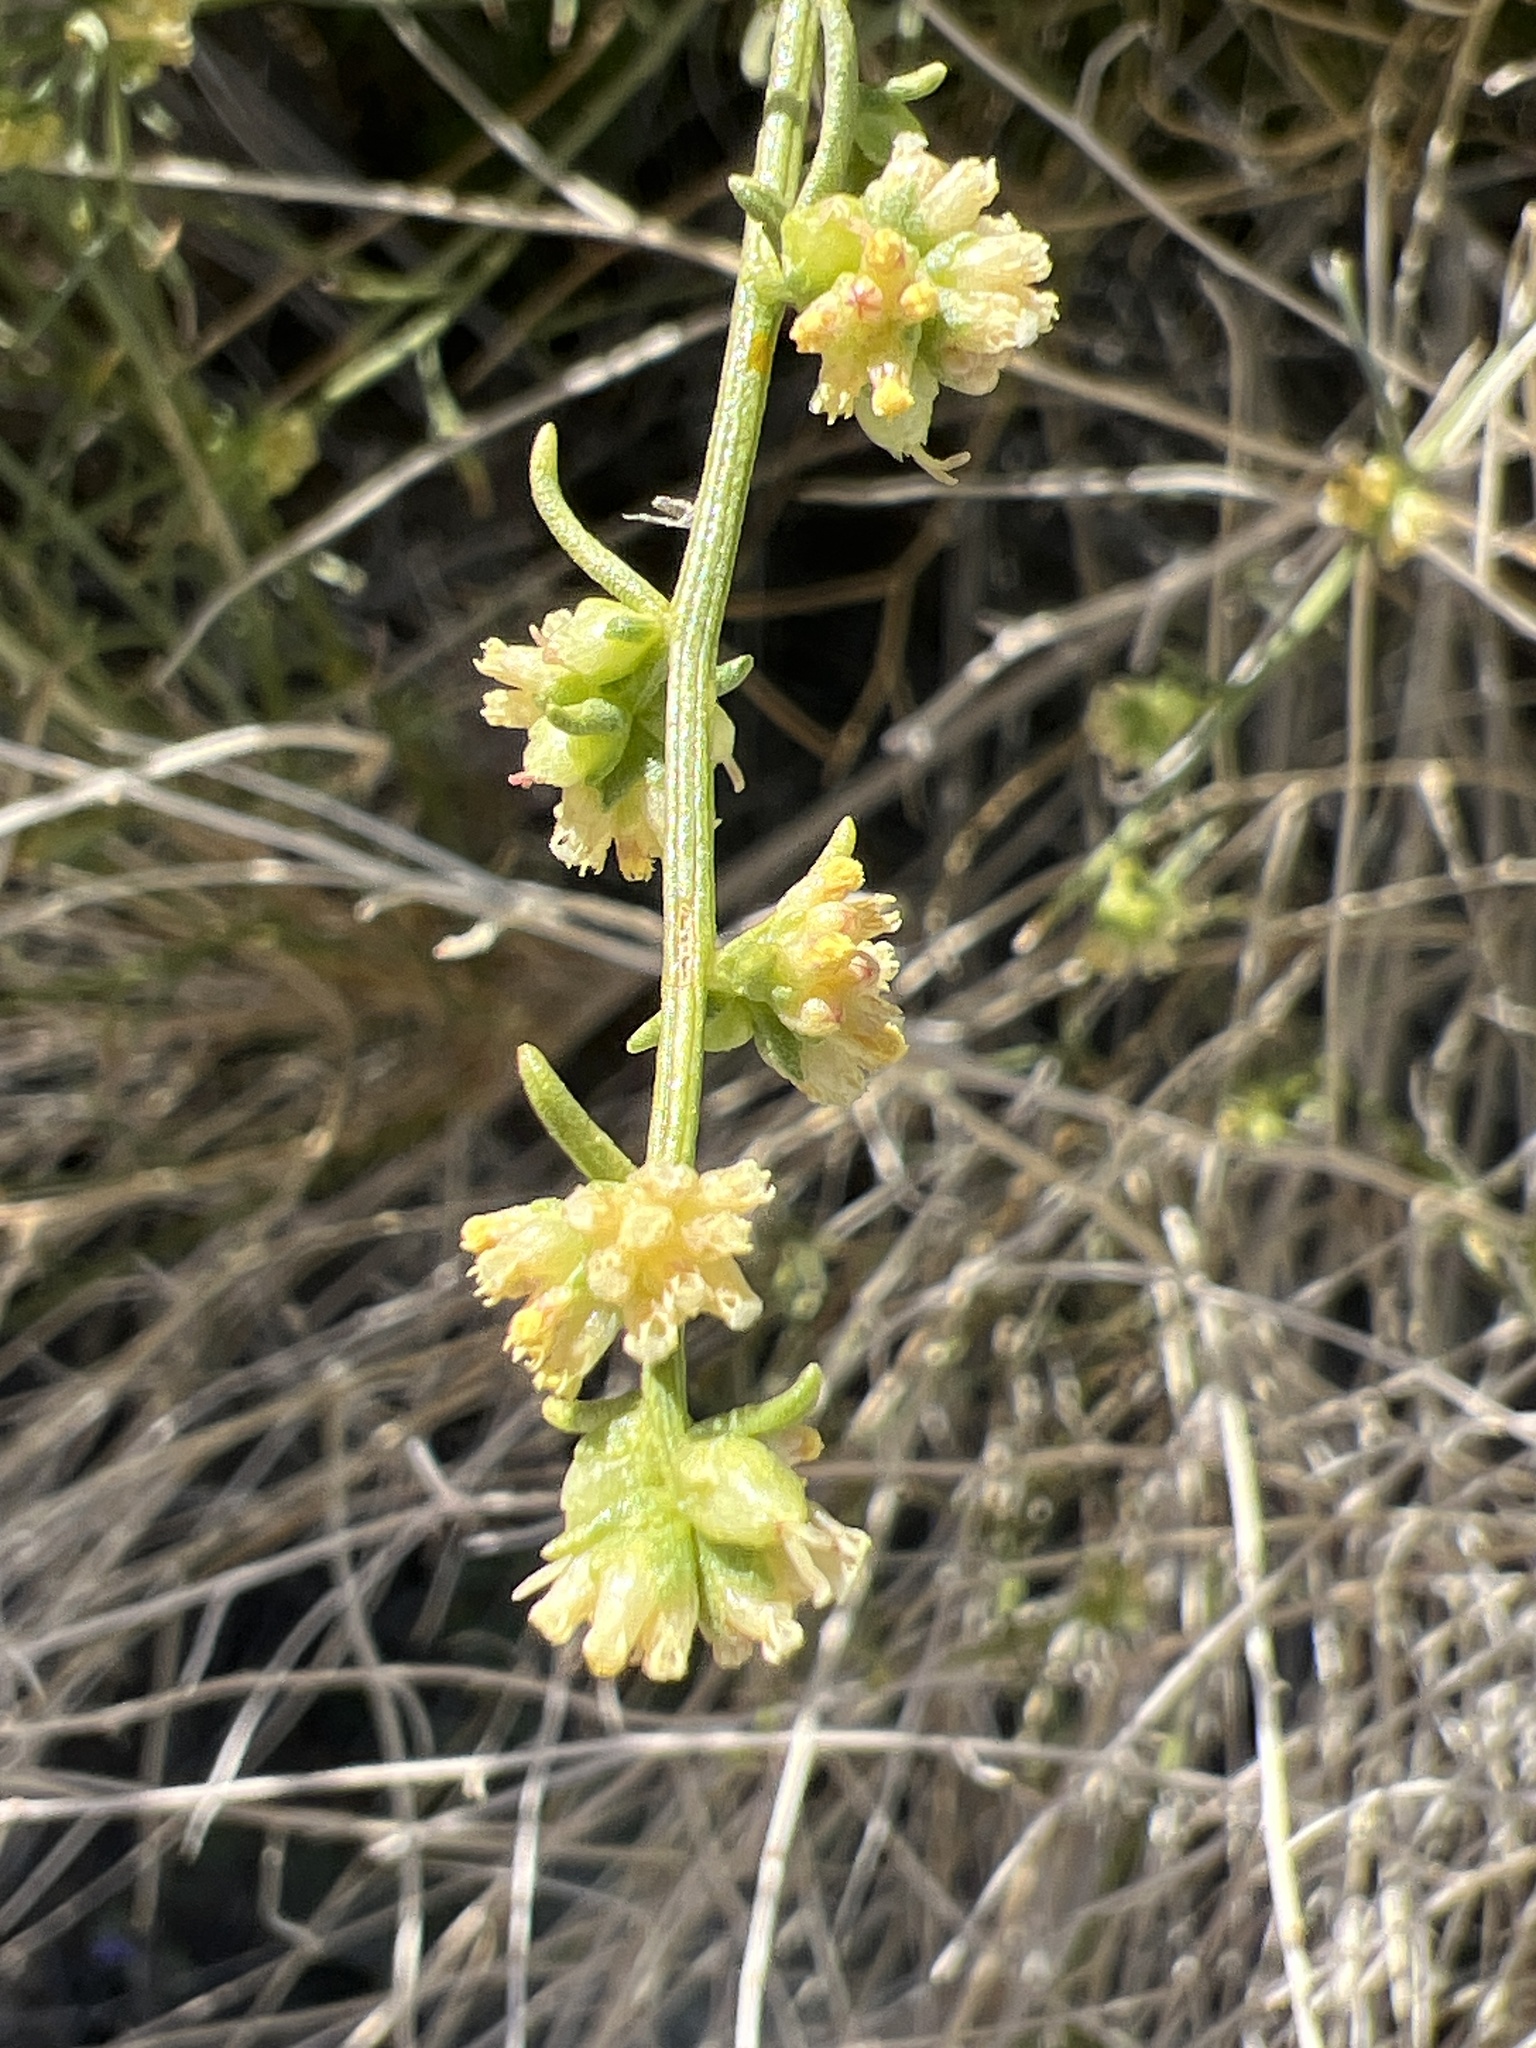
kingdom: Plantae
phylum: Tracheophyta
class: Magnoliopsida
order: Asterales
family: Asteraceae
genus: Ambrosia
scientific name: Ambrosia salsola
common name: Burrobrush
